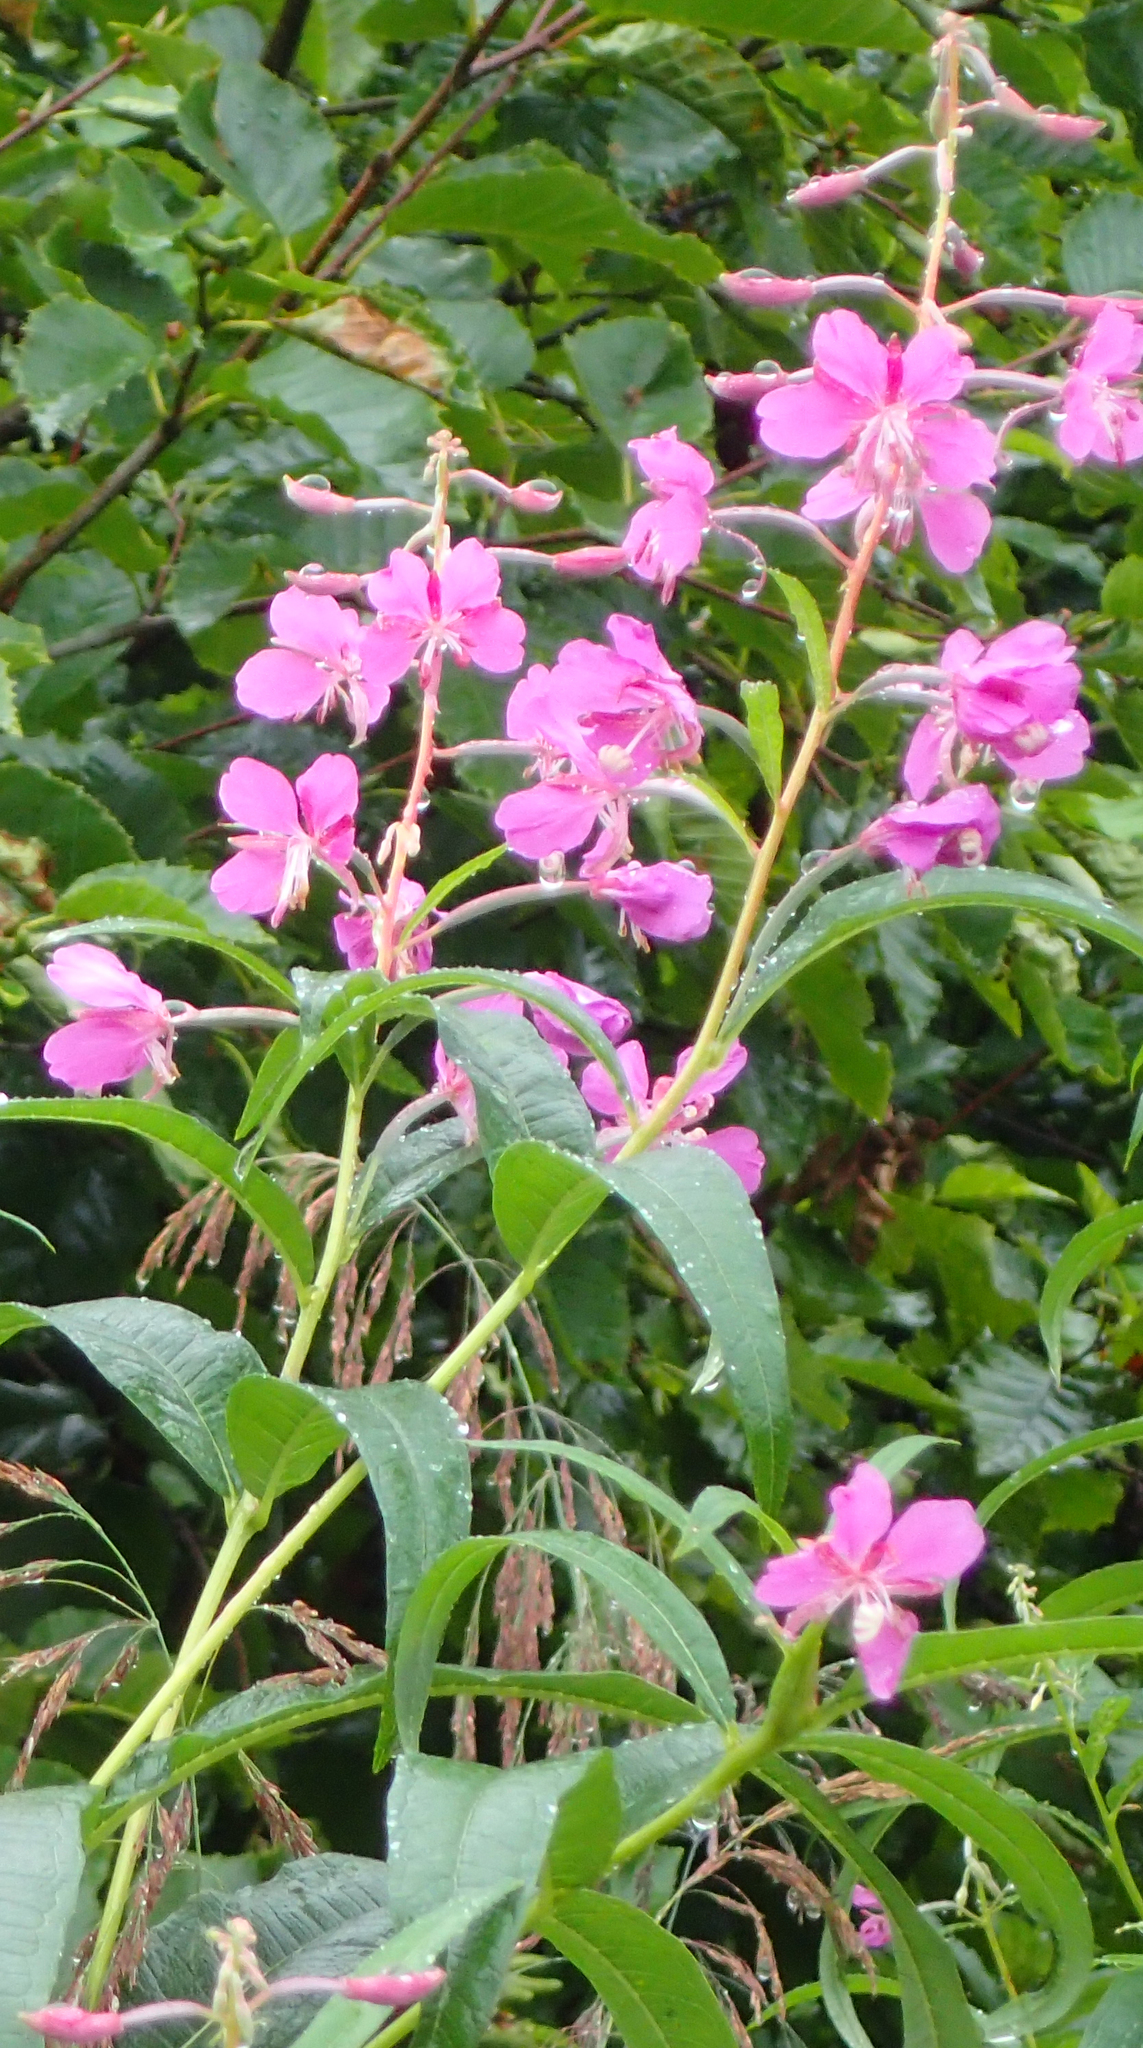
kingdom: Plantae
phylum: Tracheophyta
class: Magnoliopsida
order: Myrtales
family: Onagraceae
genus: Chamaenerion
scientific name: Chamaenerion angustifolium
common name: Fireweed
